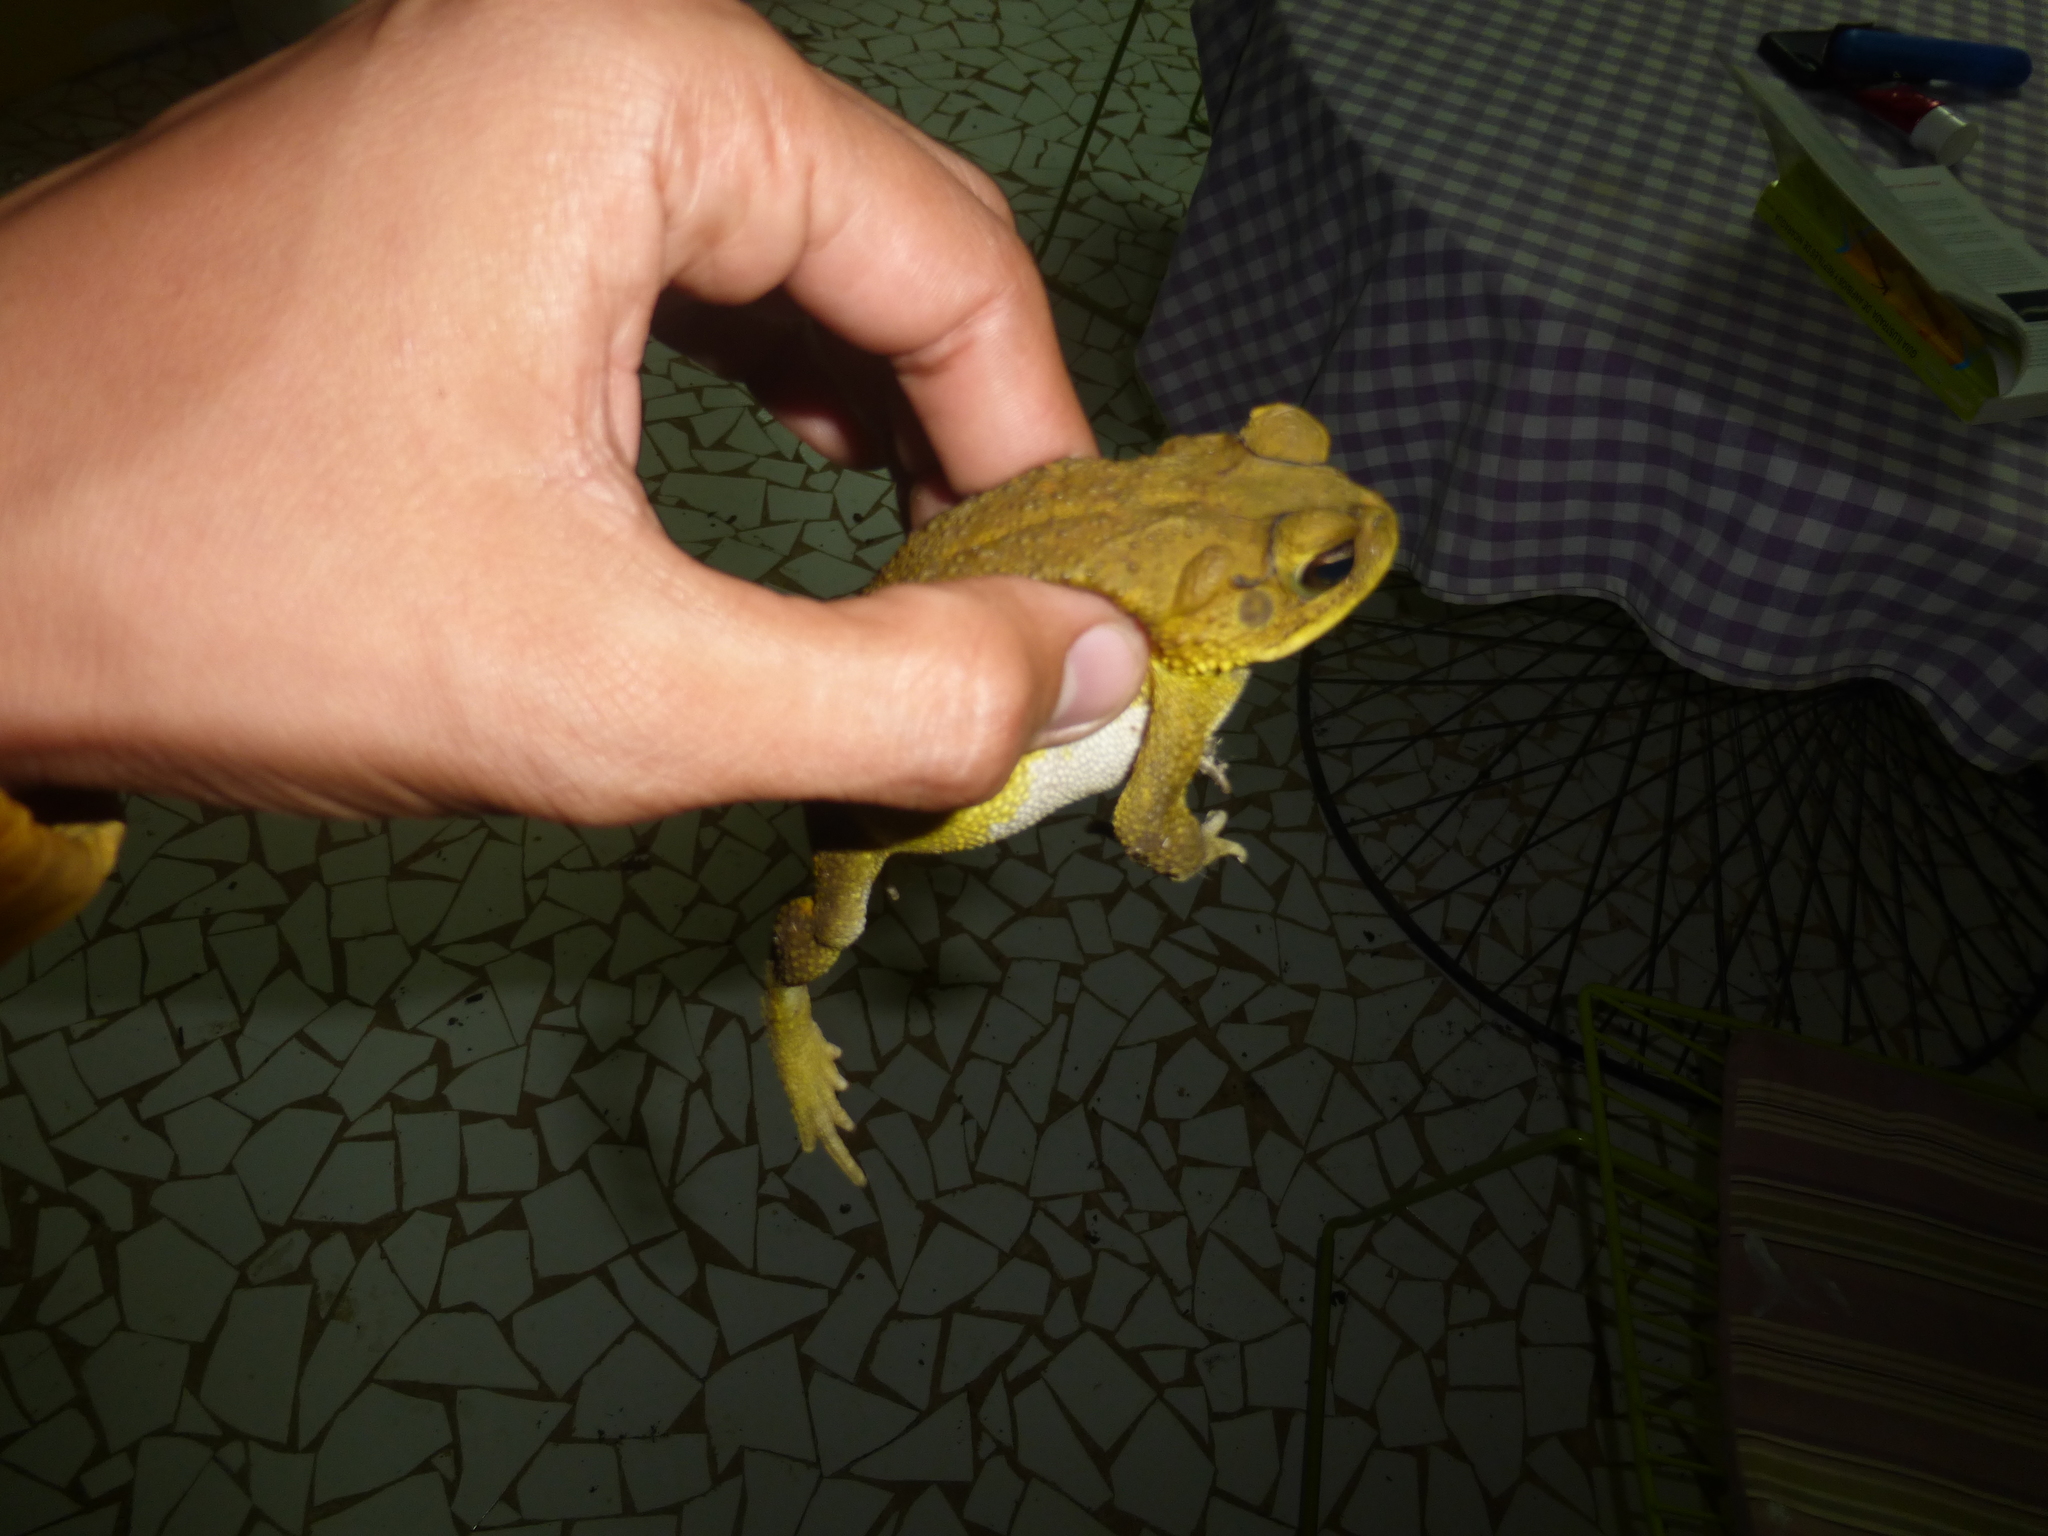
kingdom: Animalia
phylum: Chordata
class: Amphibia
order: Anura
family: Bufonidae
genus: Incilius
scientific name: Incilius luetkenii
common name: Yellow toad
